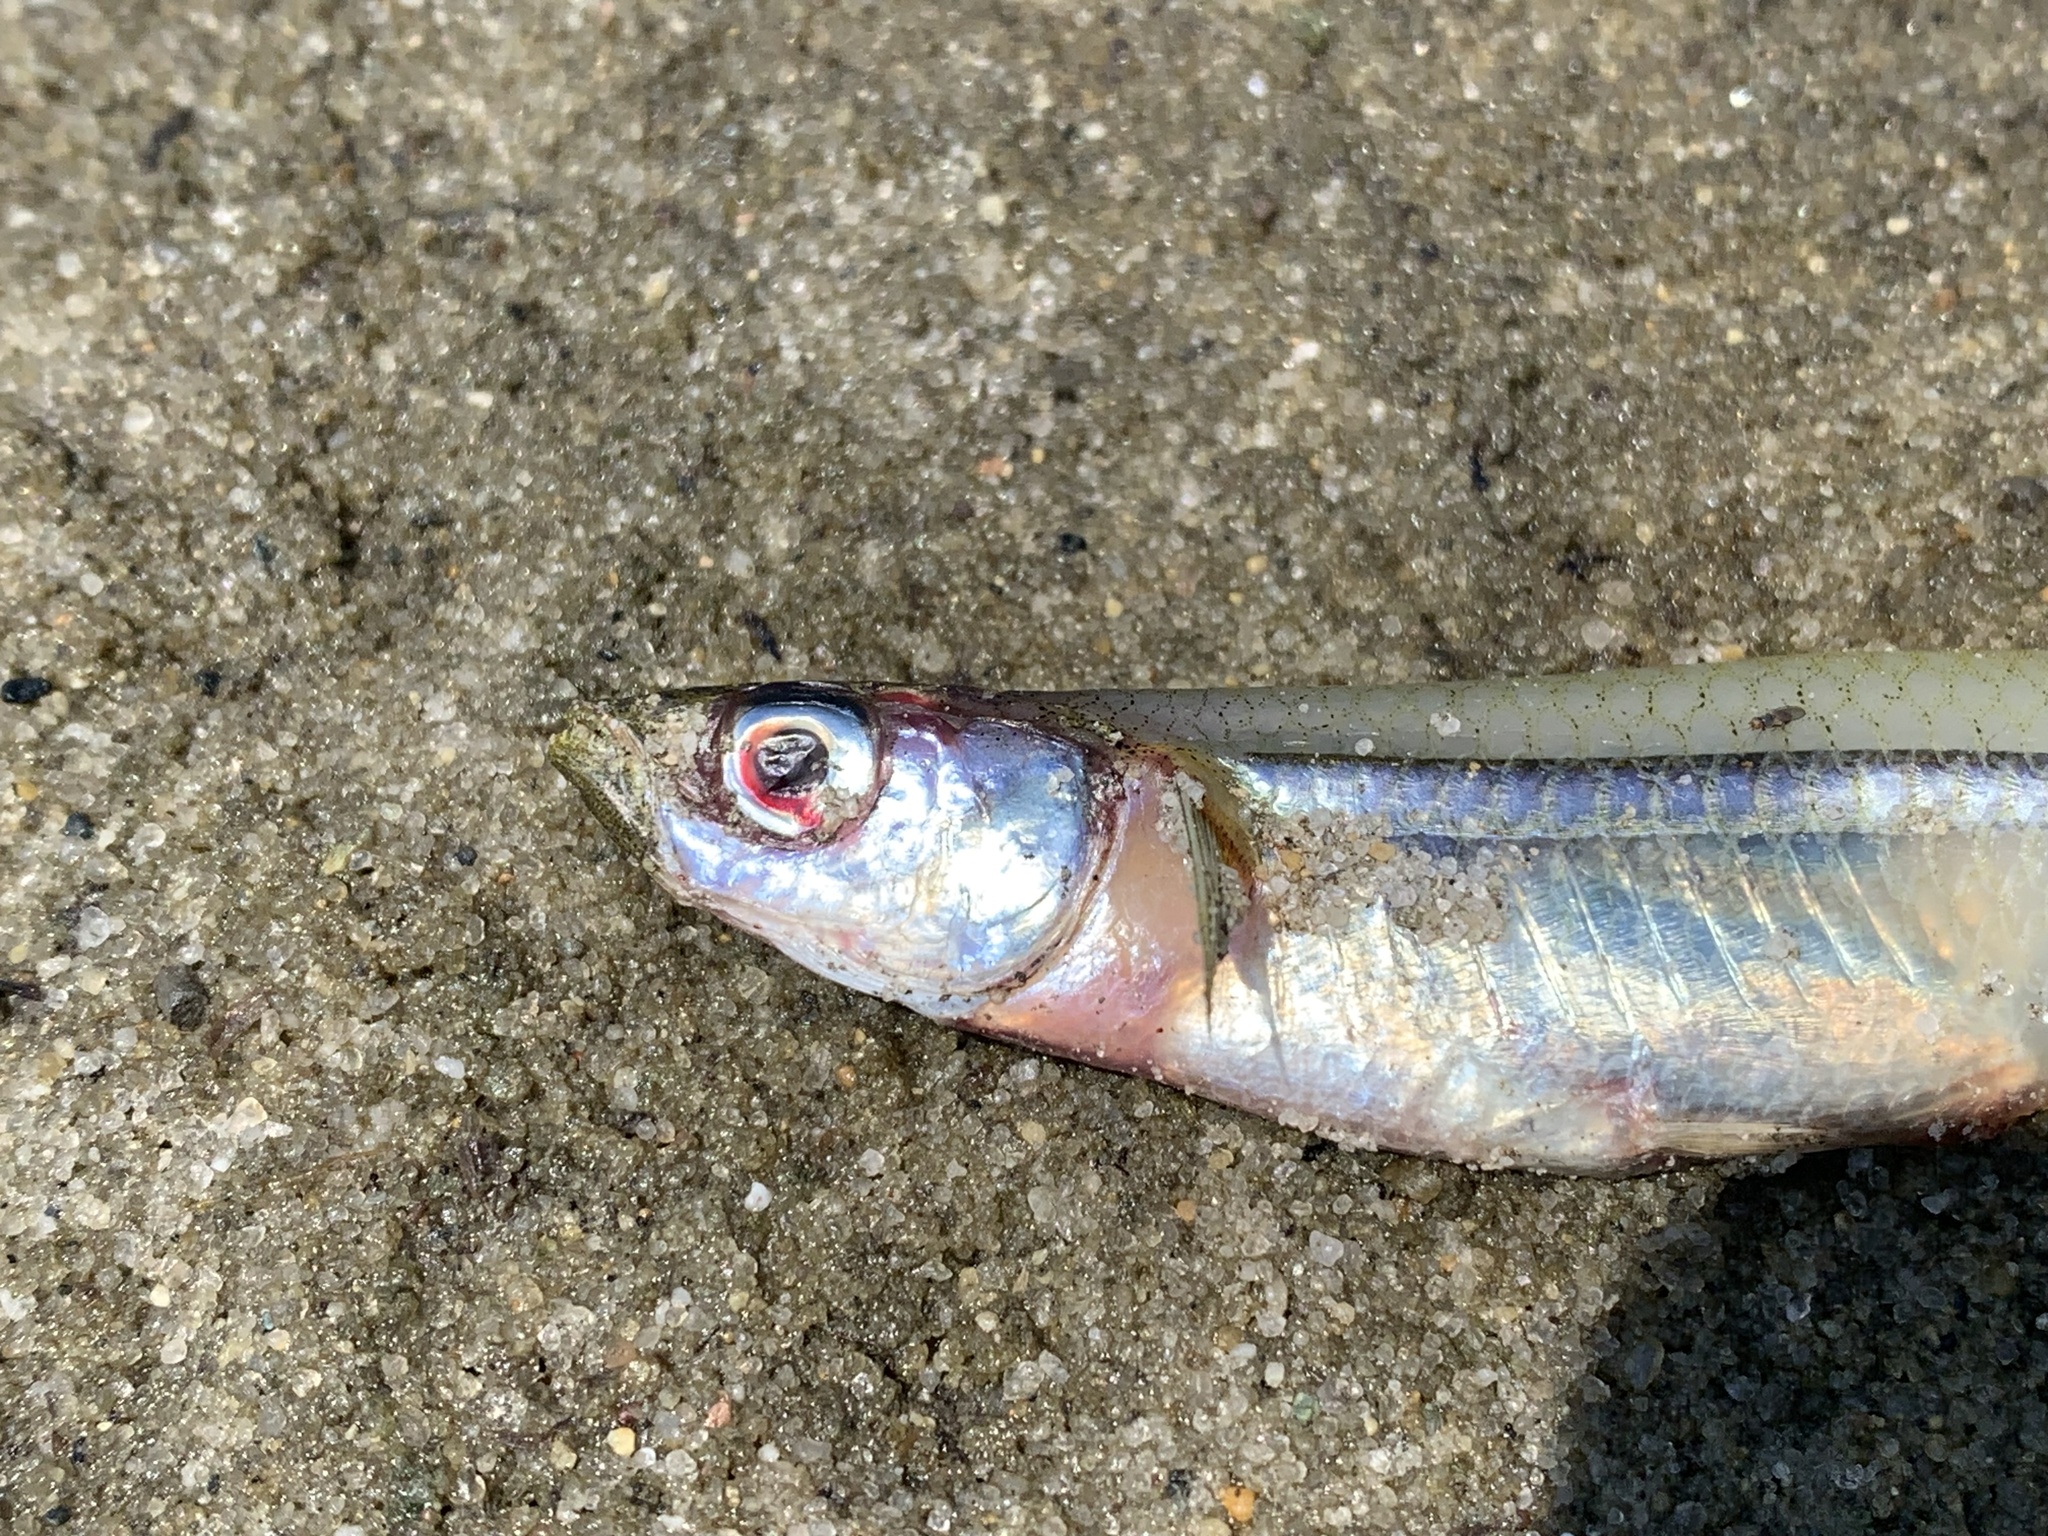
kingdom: Animalia
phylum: Chordata
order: Atheriniformes
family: Atherinopsidae
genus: Menidia
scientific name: Menidia menidia
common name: Atlantic silverside
